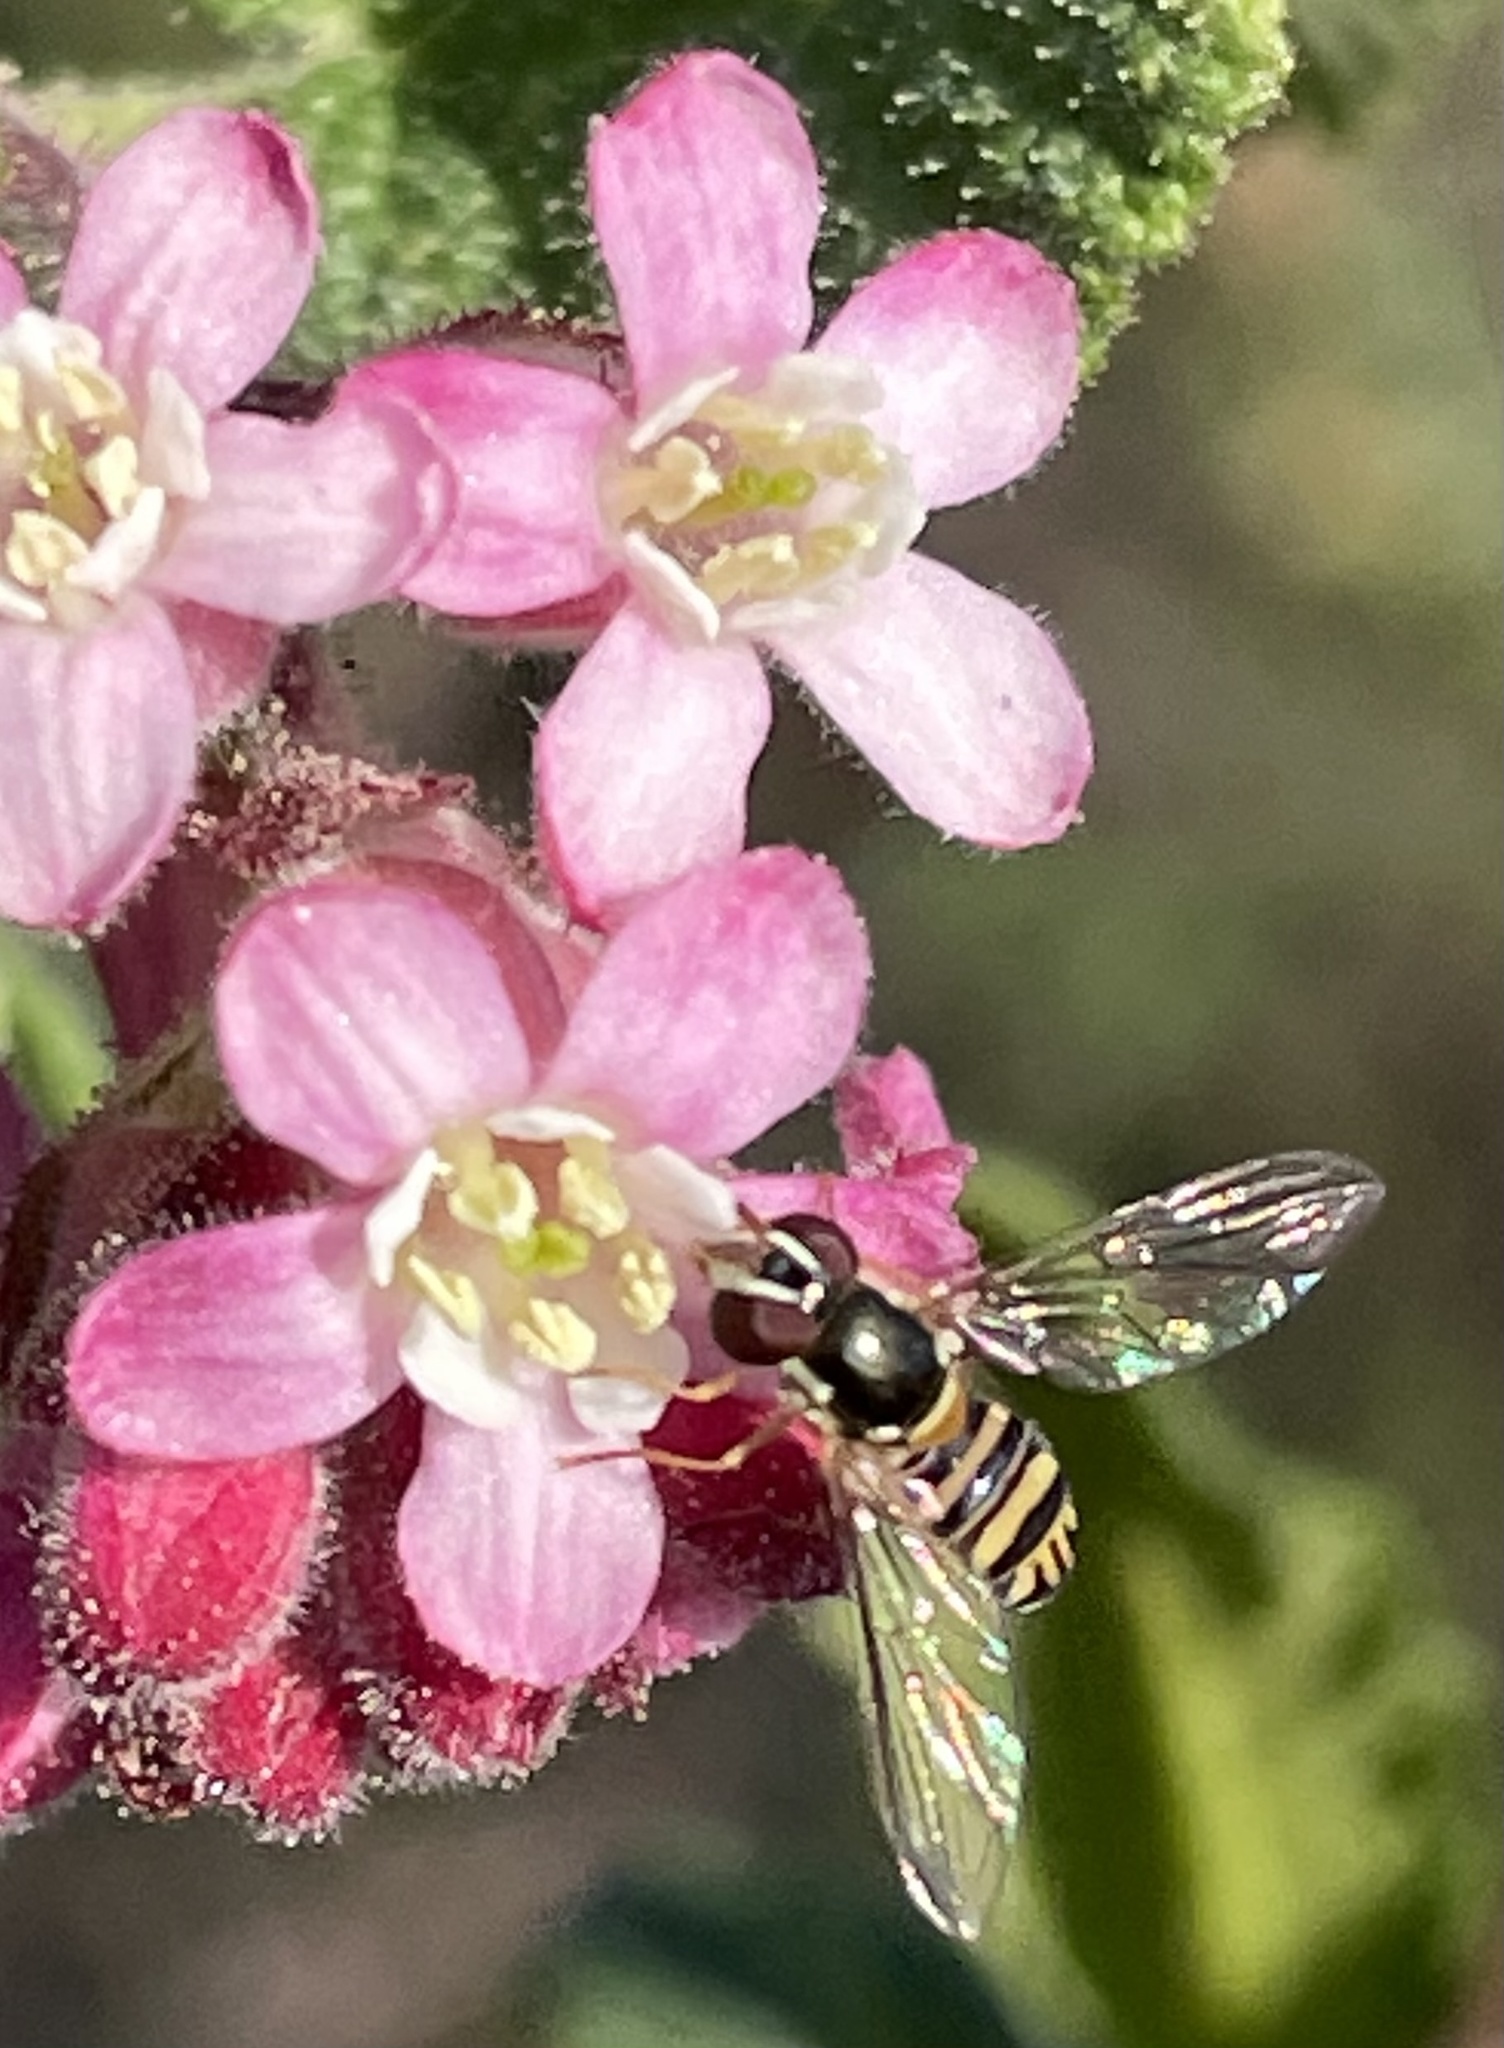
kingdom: Animalia
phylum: Arthropoda
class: Insecta
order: Diptera
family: Syrphidae
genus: Allograpta
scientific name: Allograpta obliqua
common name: Common oblique syrphid
